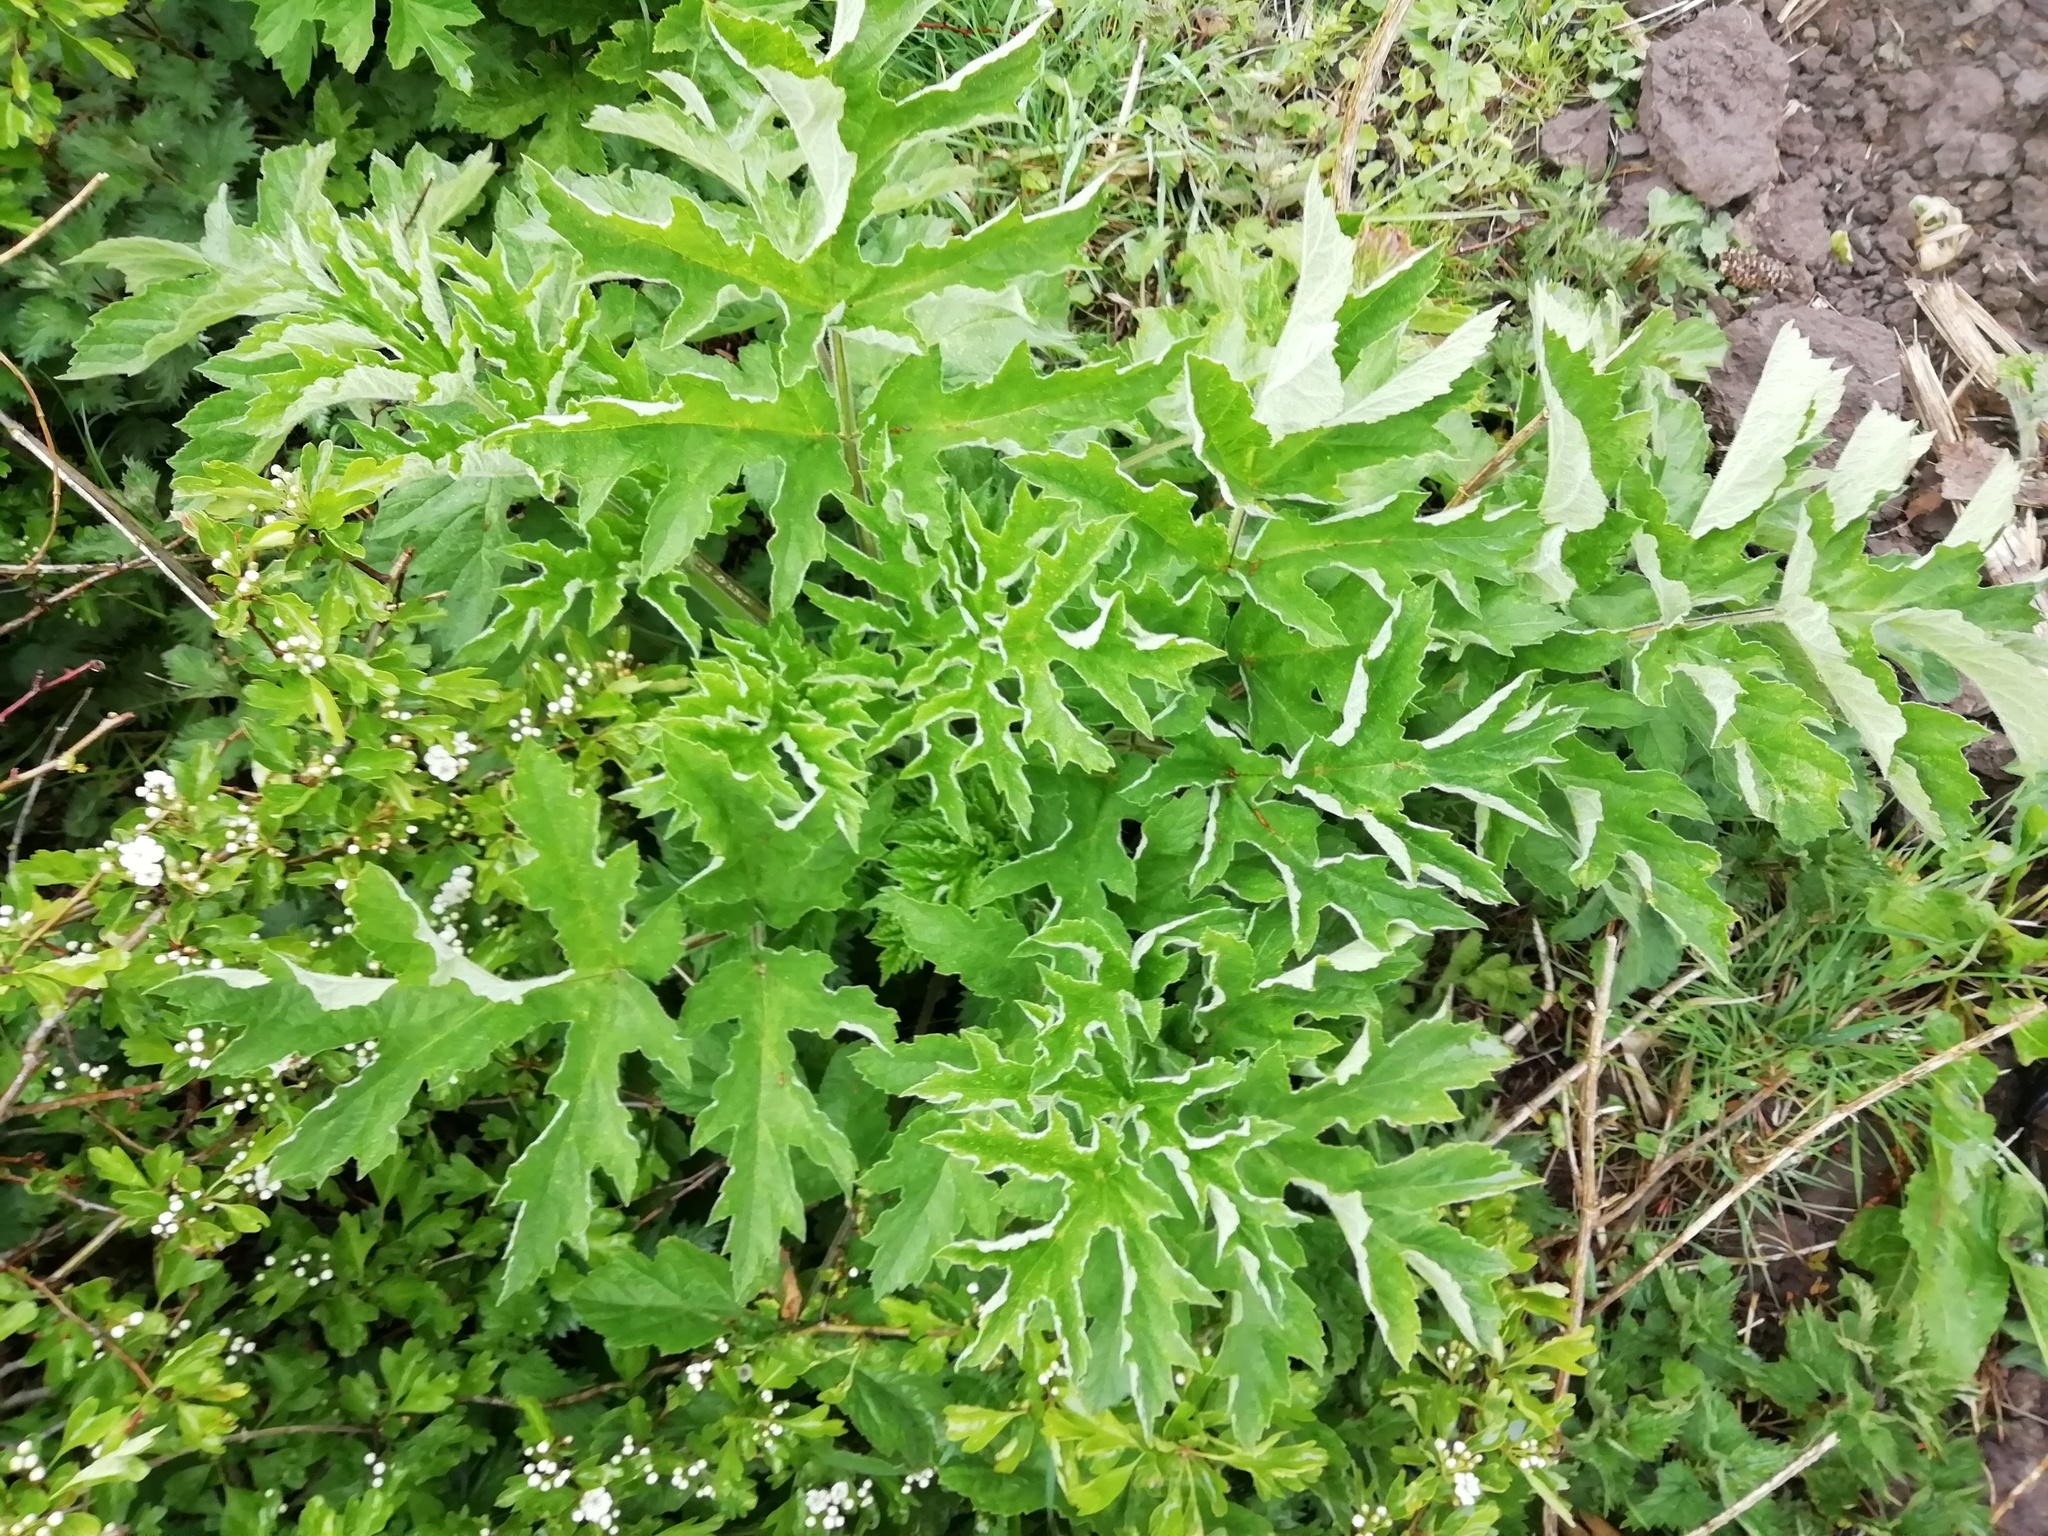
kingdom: Plantae
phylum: Tracheophyta
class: Magnoliopsida
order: Apiales
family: Apiaceae
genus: Heracleum
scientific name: Heracleum sphondylium
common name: Hogweed
